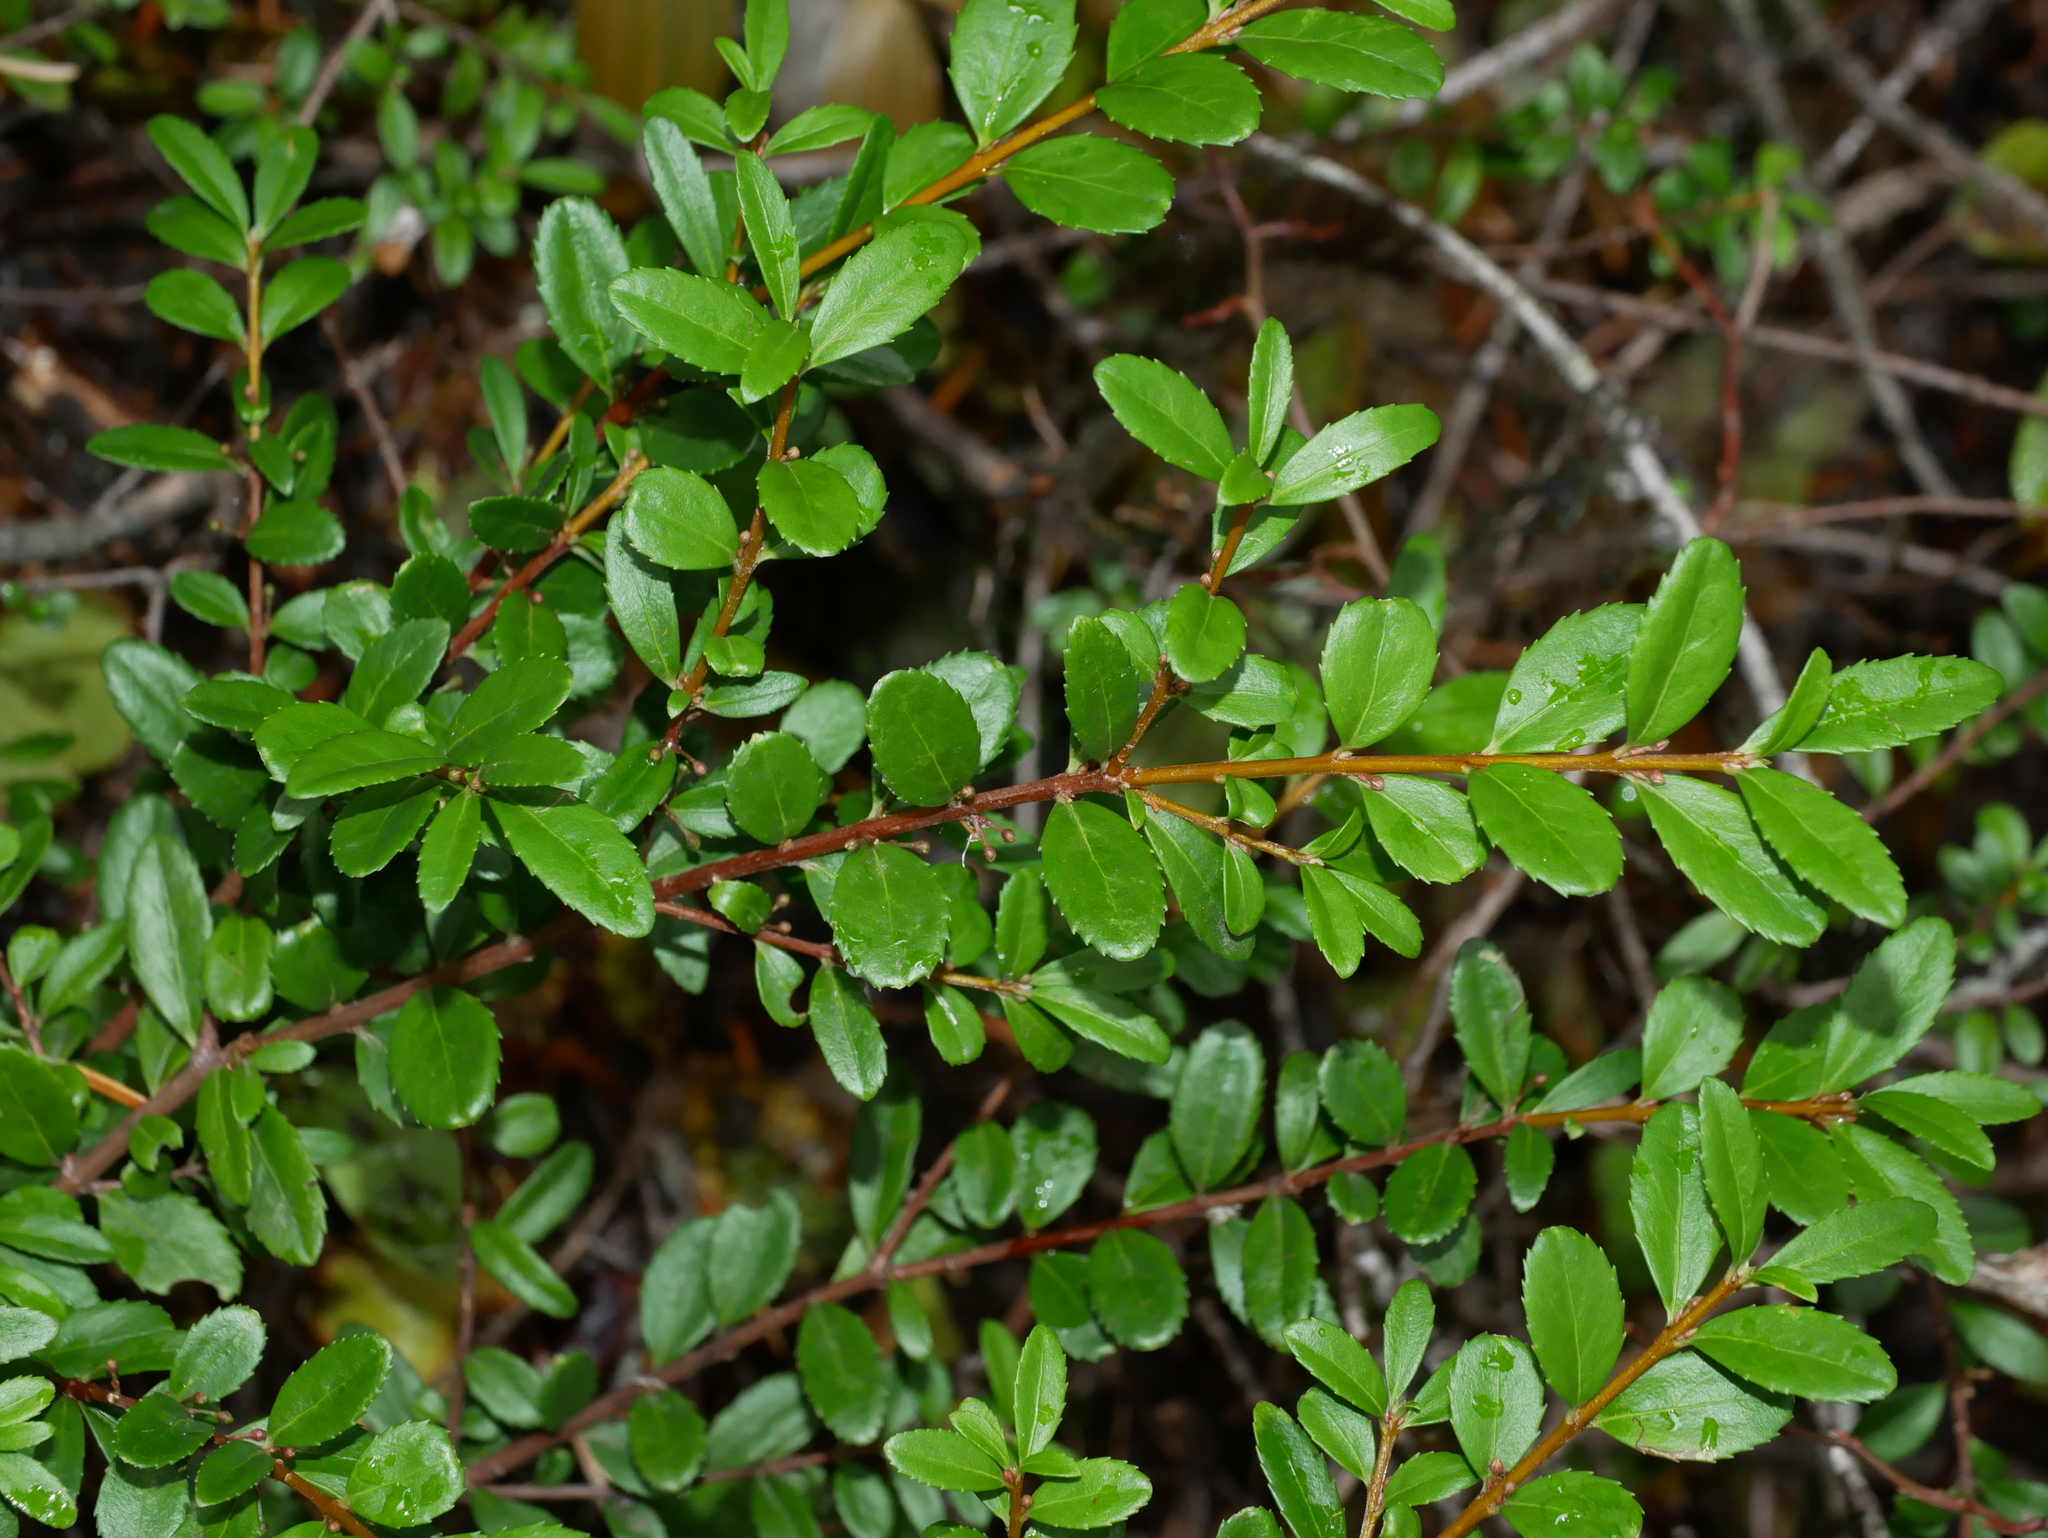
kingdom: Plantae
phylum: Tracheophyta
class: Magnoliopsida
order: Celastrales
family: Celastraceae
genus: Paxistima
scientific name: Paxistima myrsinites
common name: Mountain-lover
